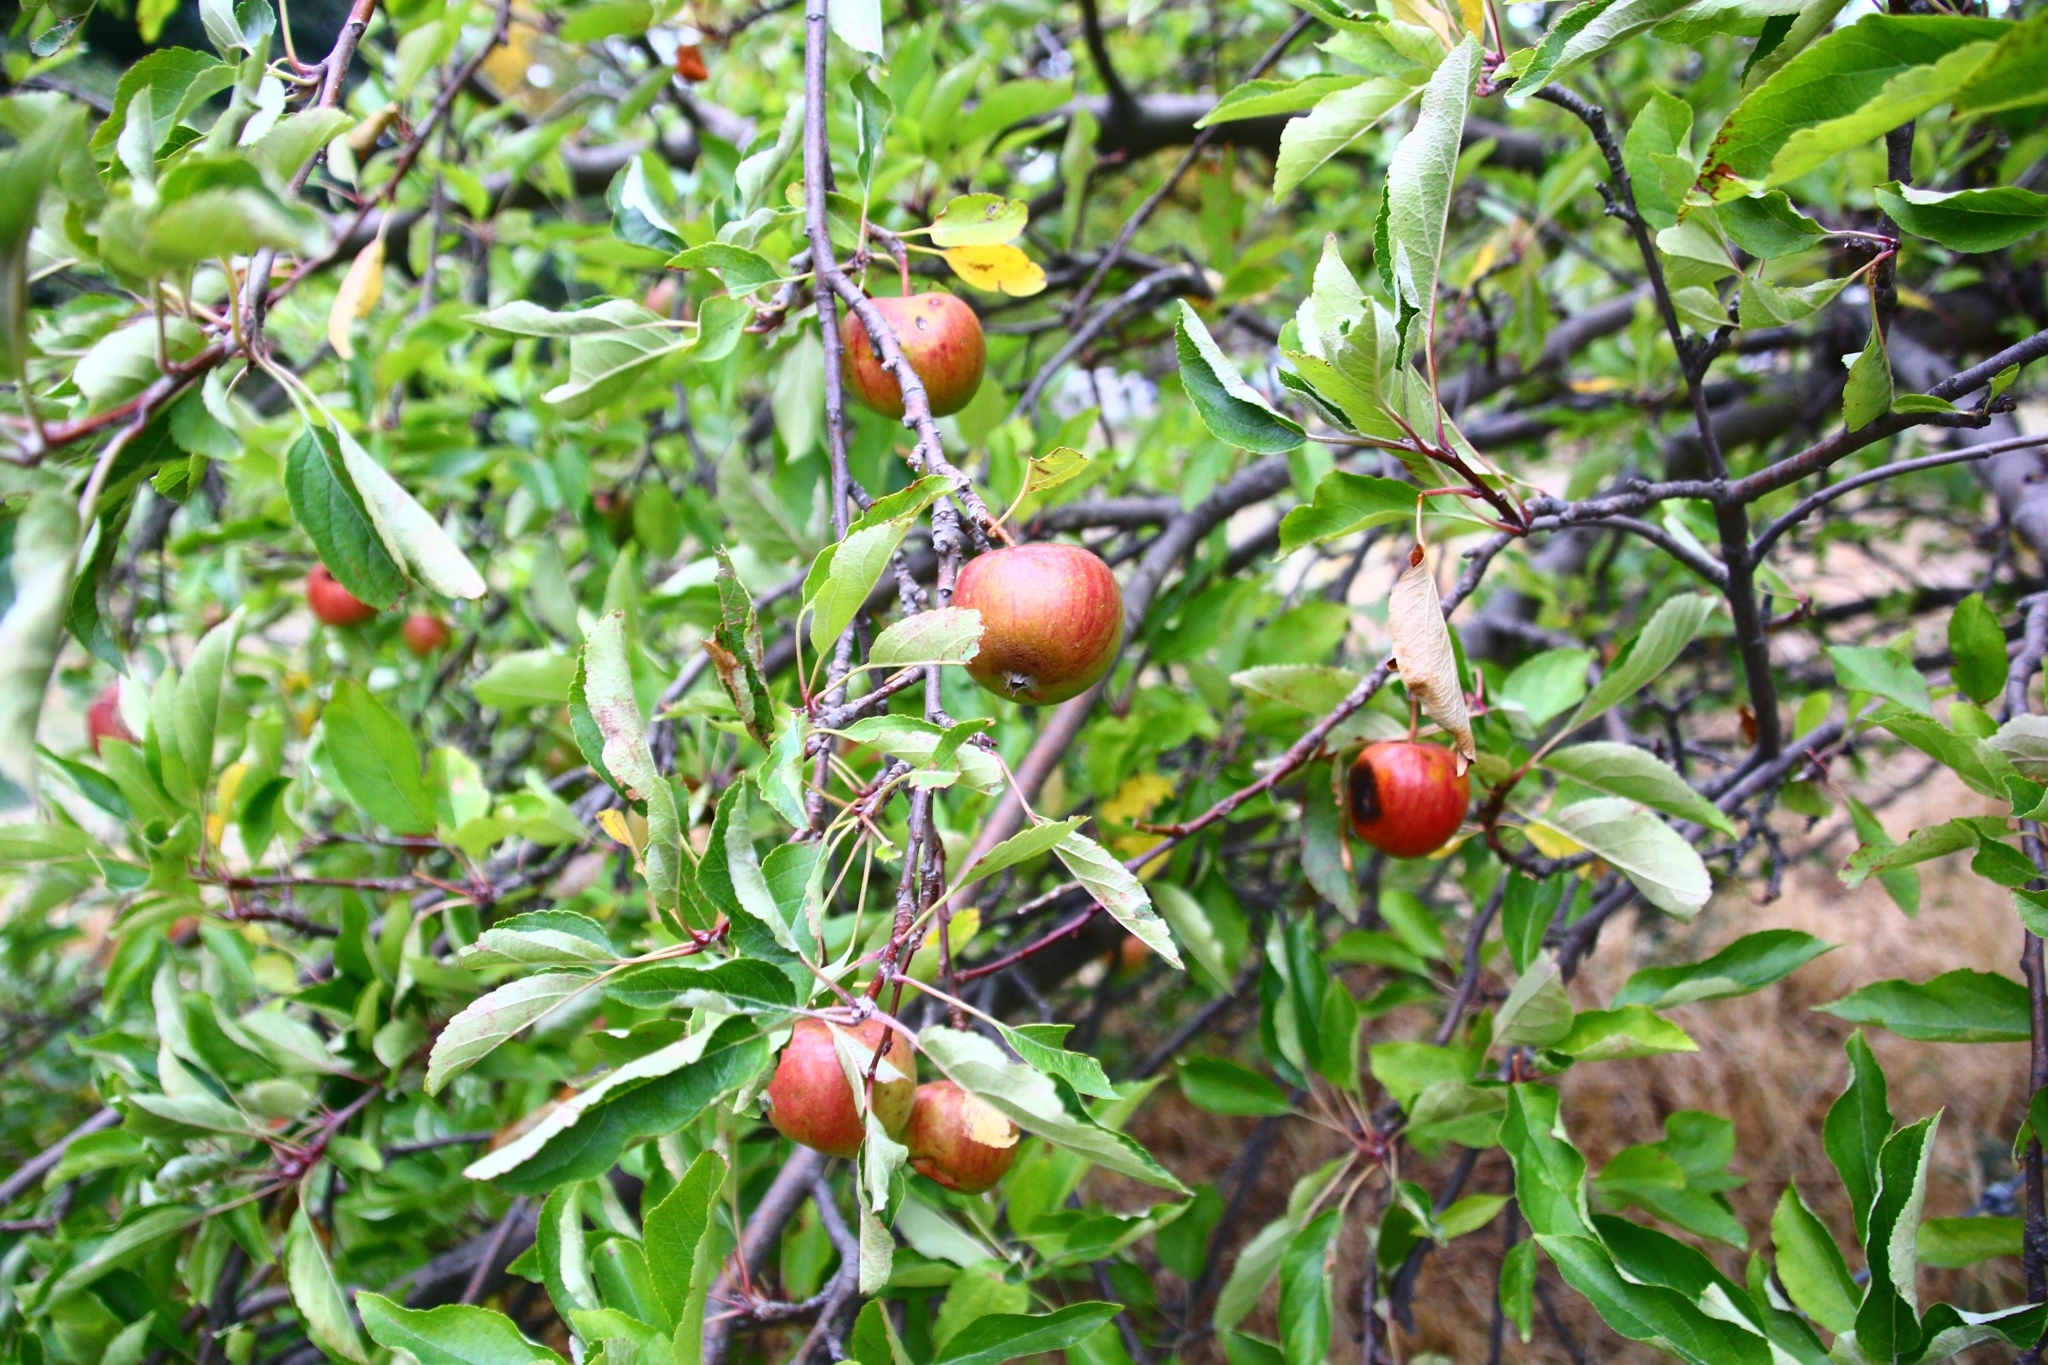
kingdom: Plantae
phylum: Tracheophyta
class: Magnoliopsida
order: Rosales
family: Rosaceae
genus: Malus
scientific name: Malus domestica
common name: Apple
